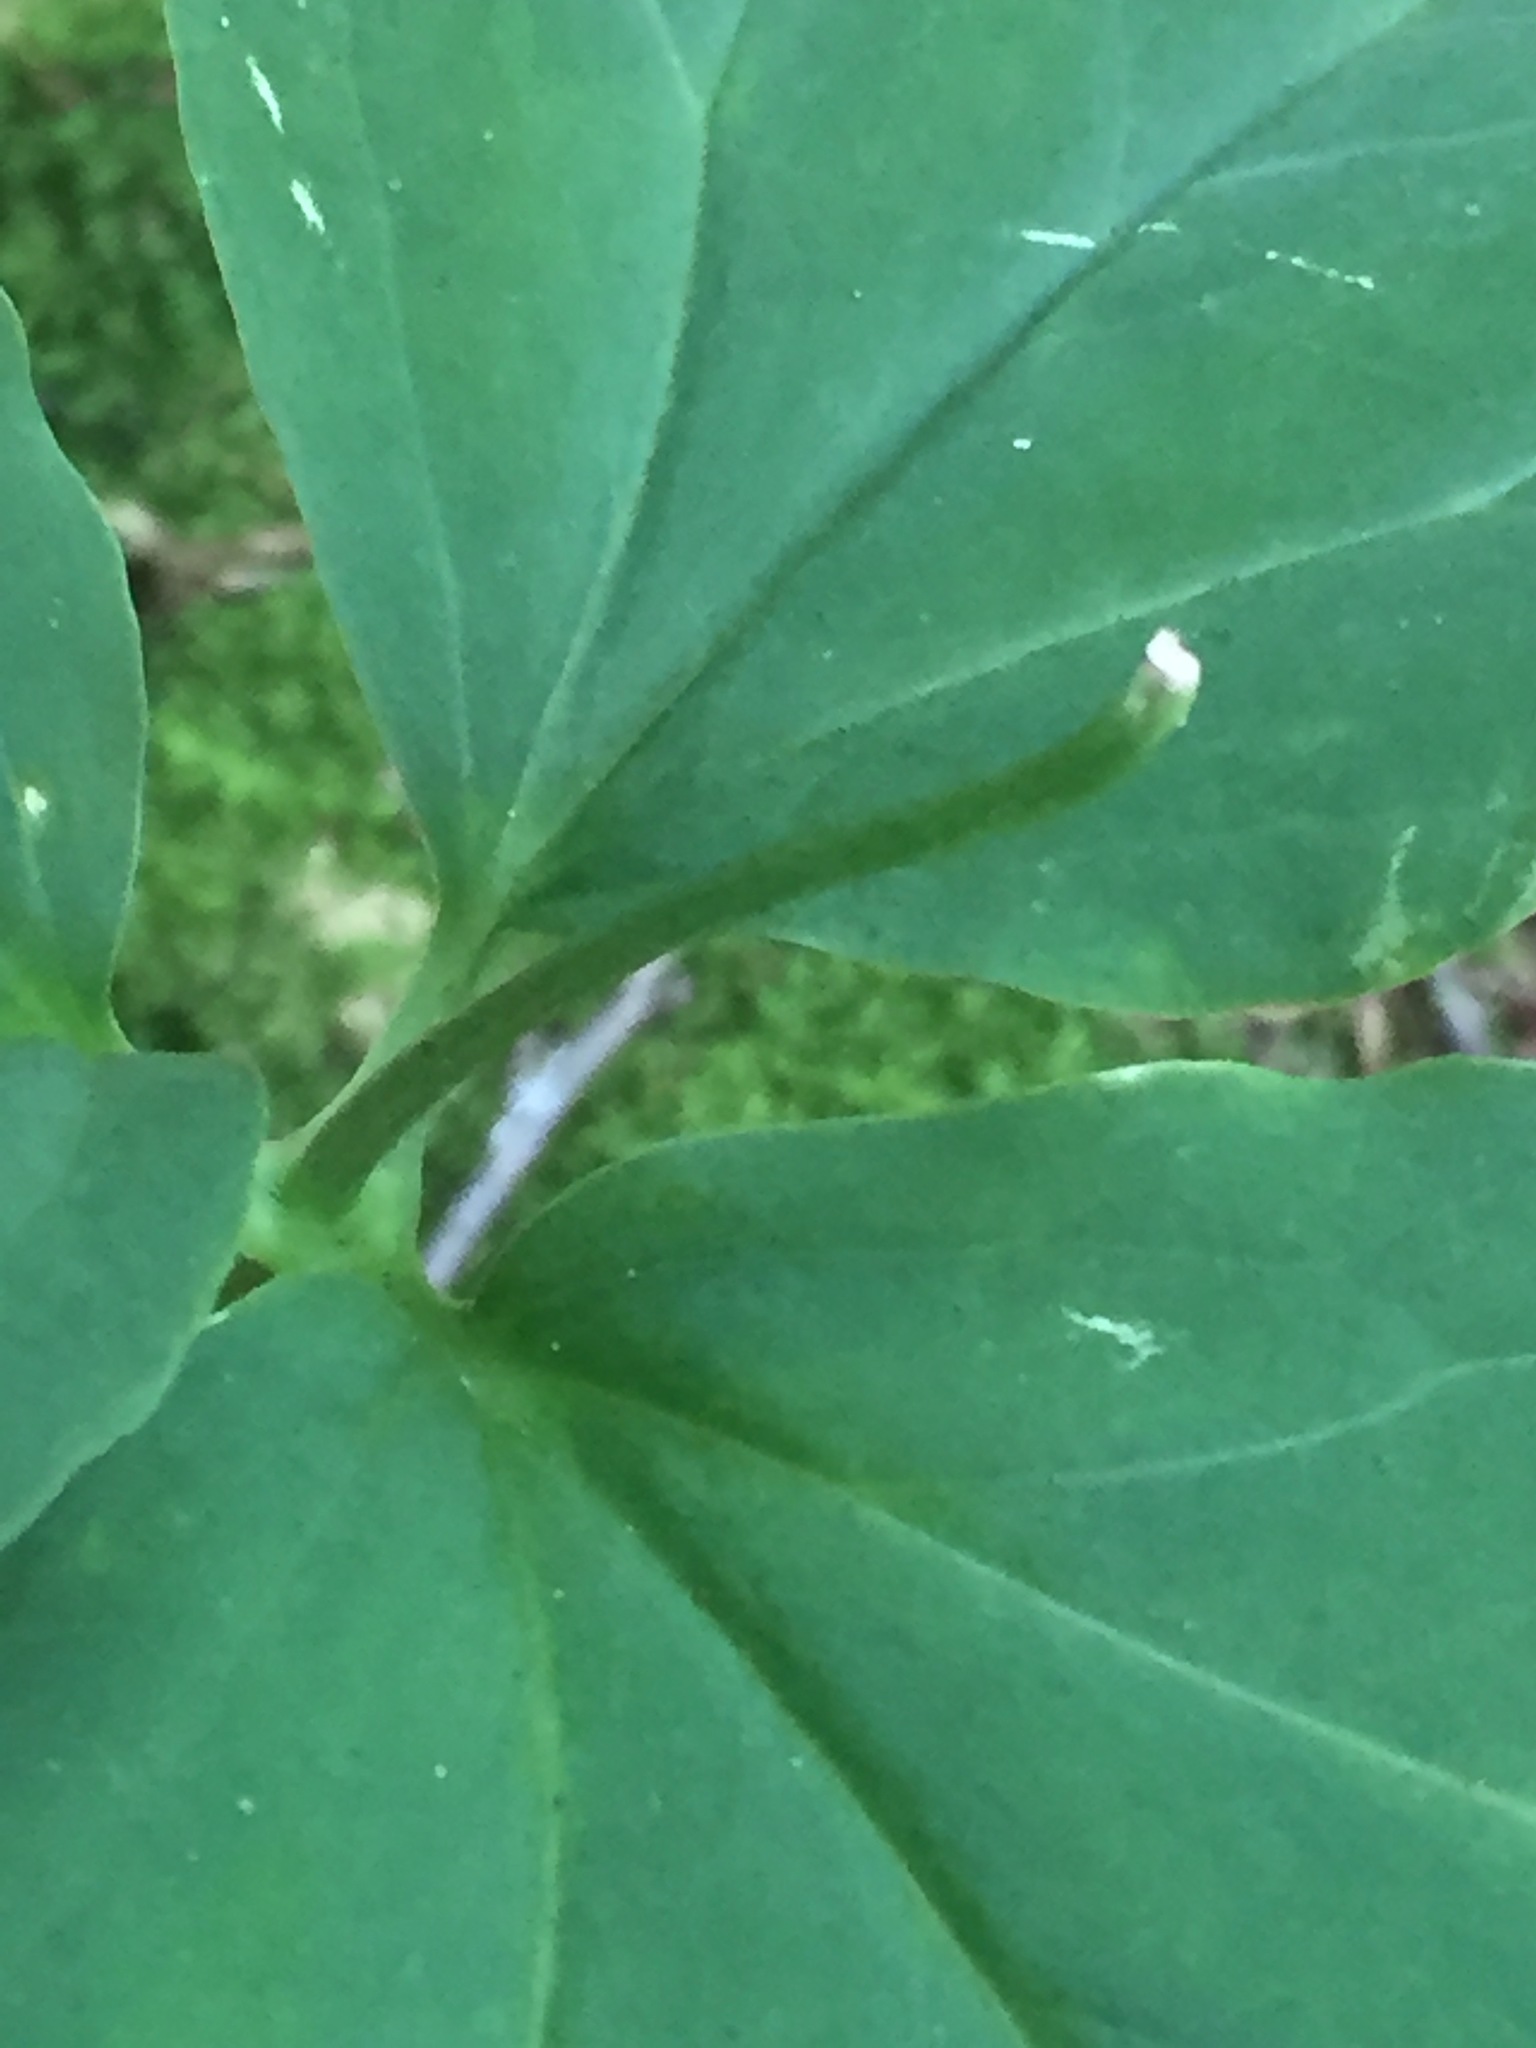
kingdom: Plantae
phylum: Tracheophyta
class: Liliopsida
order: Liliales
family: Melanthiaceae
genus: Trillium
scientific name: Trillium undulatum
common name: Paint trillium
